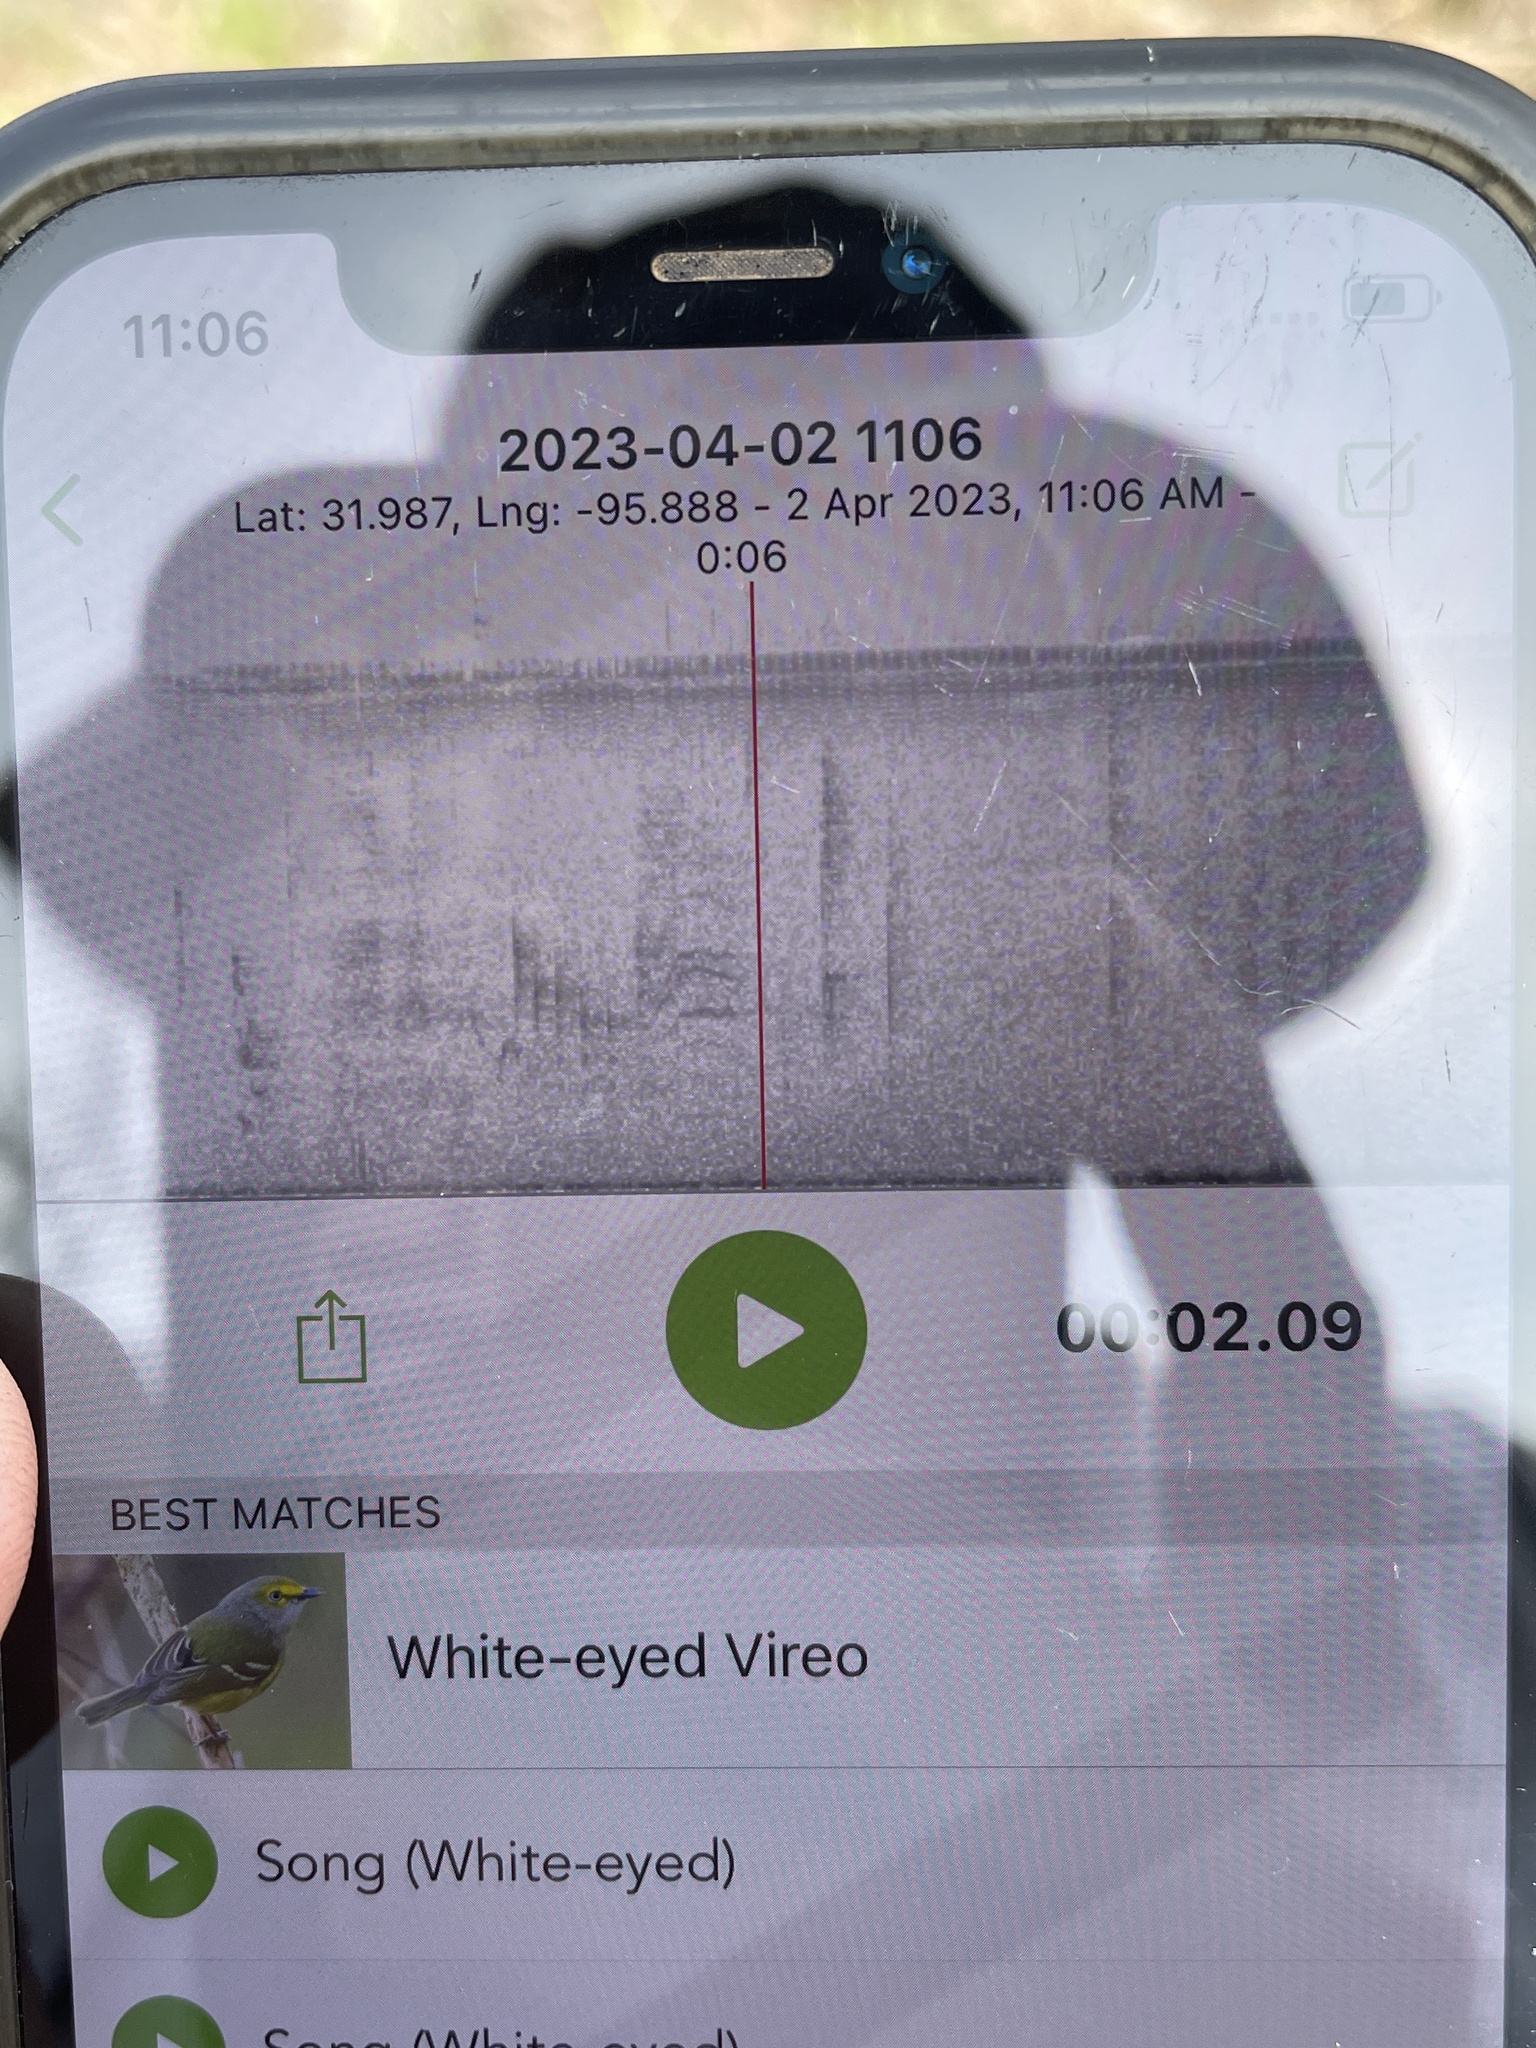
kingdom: Animalia
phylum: Chordata
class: Aves
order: Passeriformes
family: Vireonidae
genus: Vireo
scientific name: Vireo griseus
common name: White-eyed vireo
